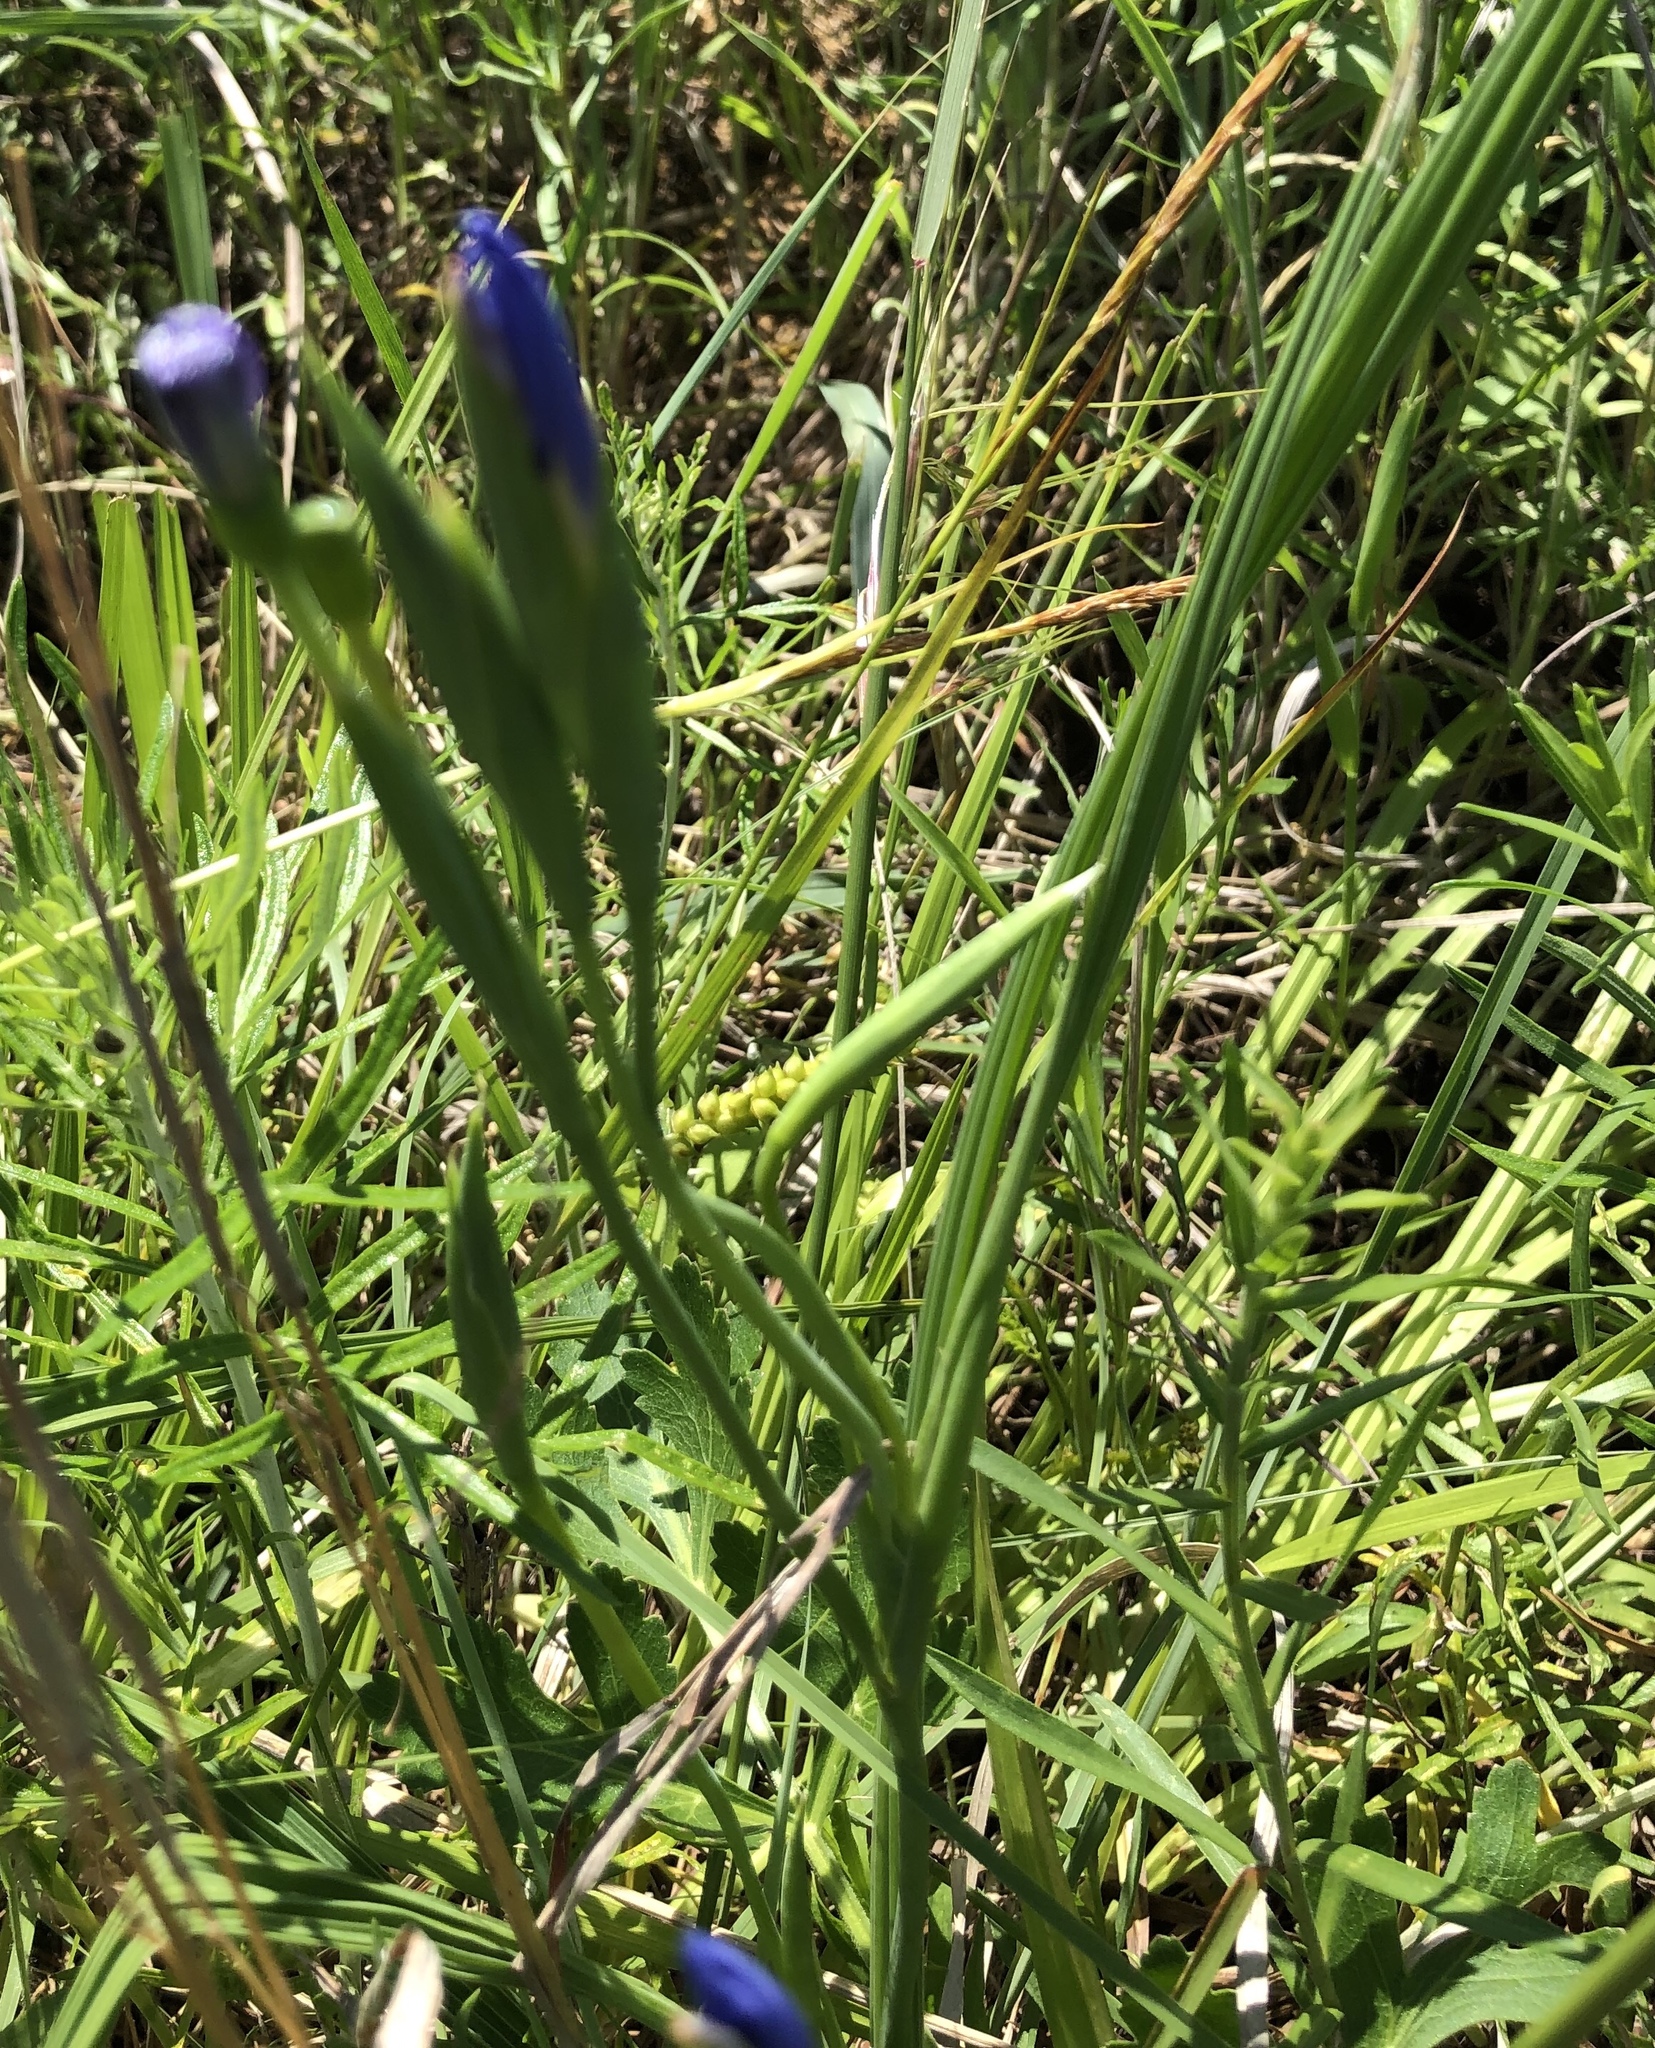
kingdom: Plantae
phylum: Tracheophyta
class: Liliopsida
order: Asparagales
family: Iridaceae
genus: Nemastylis
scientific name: Nemastylis geminiflora
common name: Prairie celestial
